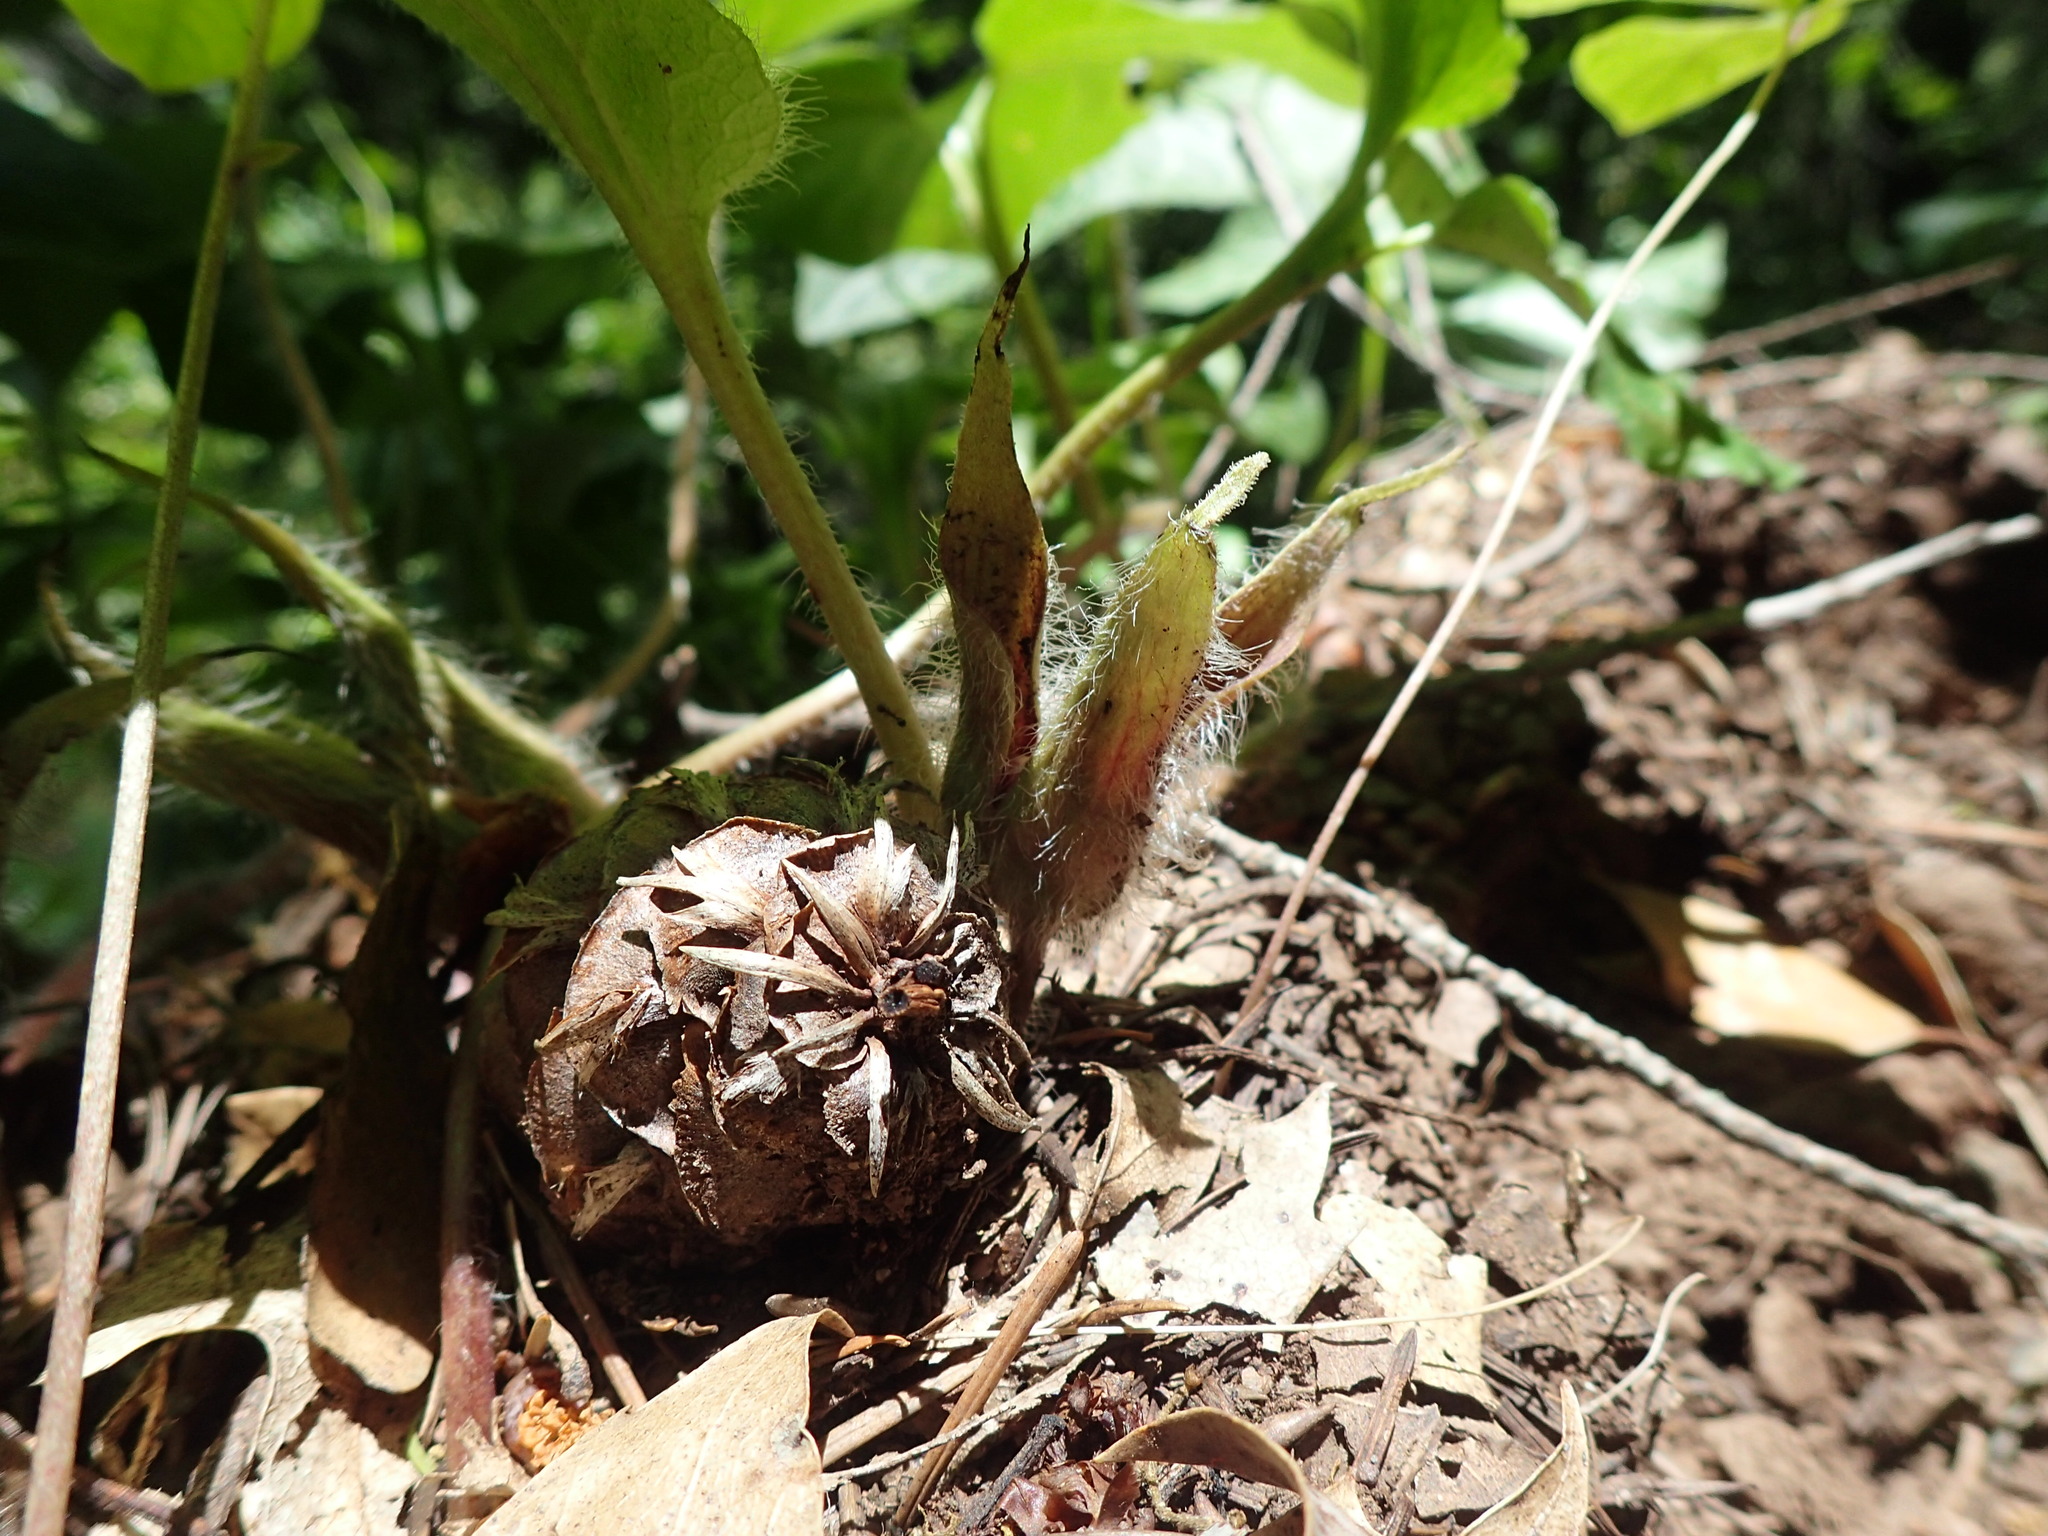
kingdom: Plantae
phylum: Tracheophyta
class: Magnoliopsida
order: Piperales
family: Aristolochiaceae
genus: Asarum
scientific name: Asarum hartwegii
